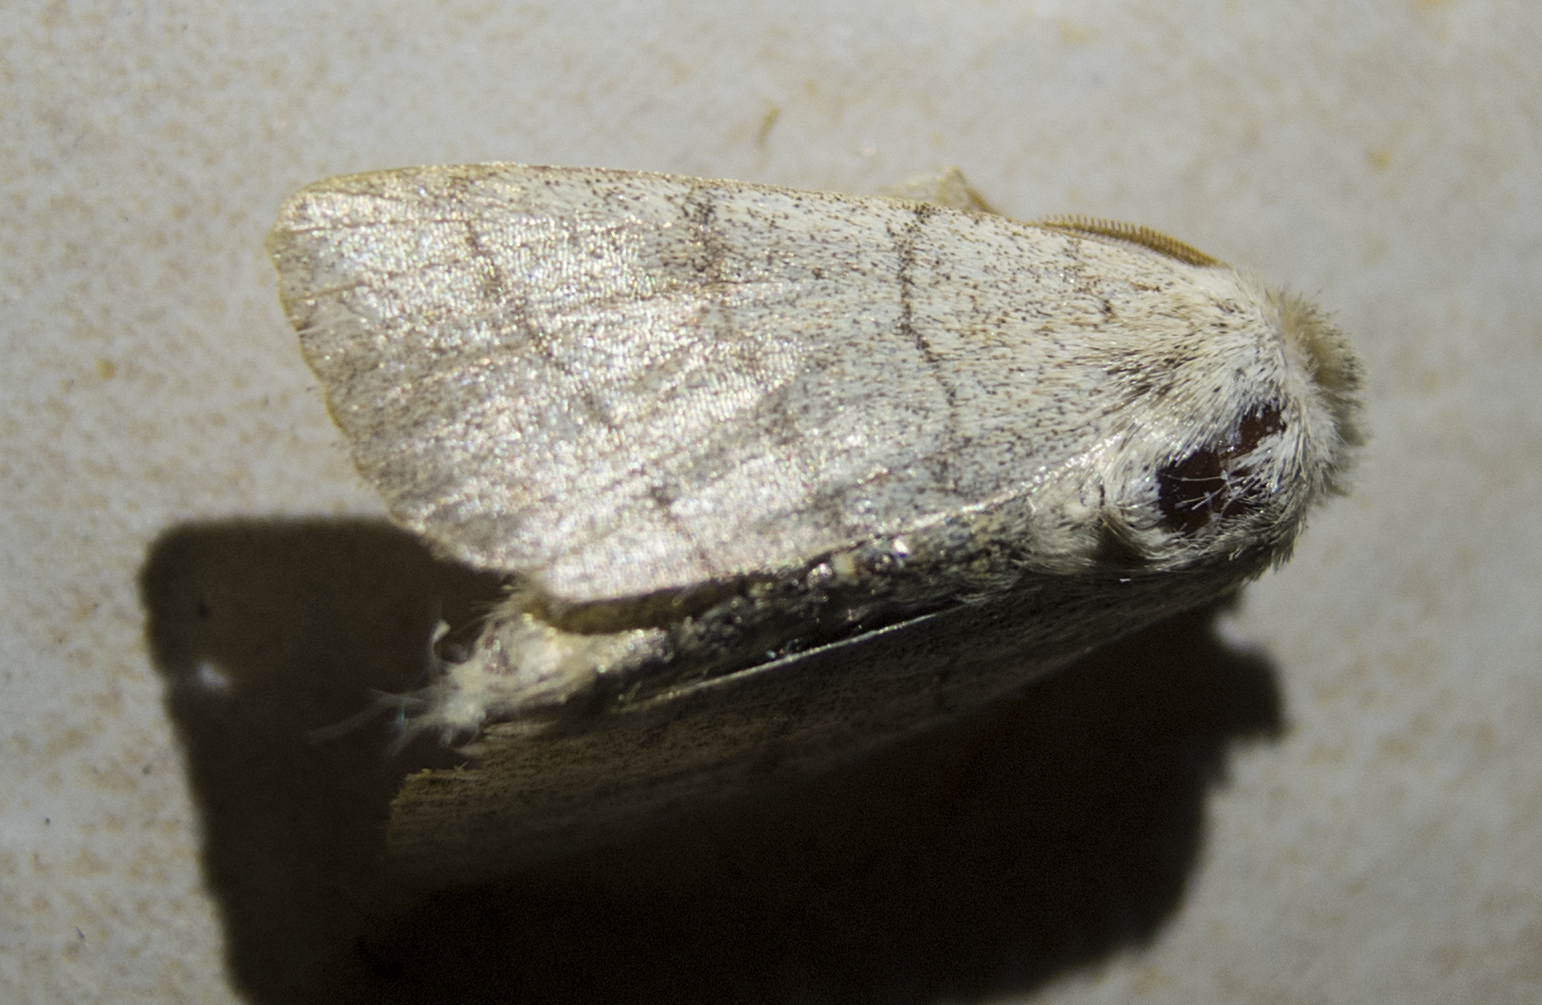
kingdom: Animalia
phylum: Arthropoda
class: Insecta
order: Lepidoptera
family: Noctuidae
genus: Charanyca
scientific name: Charanyca trigrammica
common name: Treble lines
